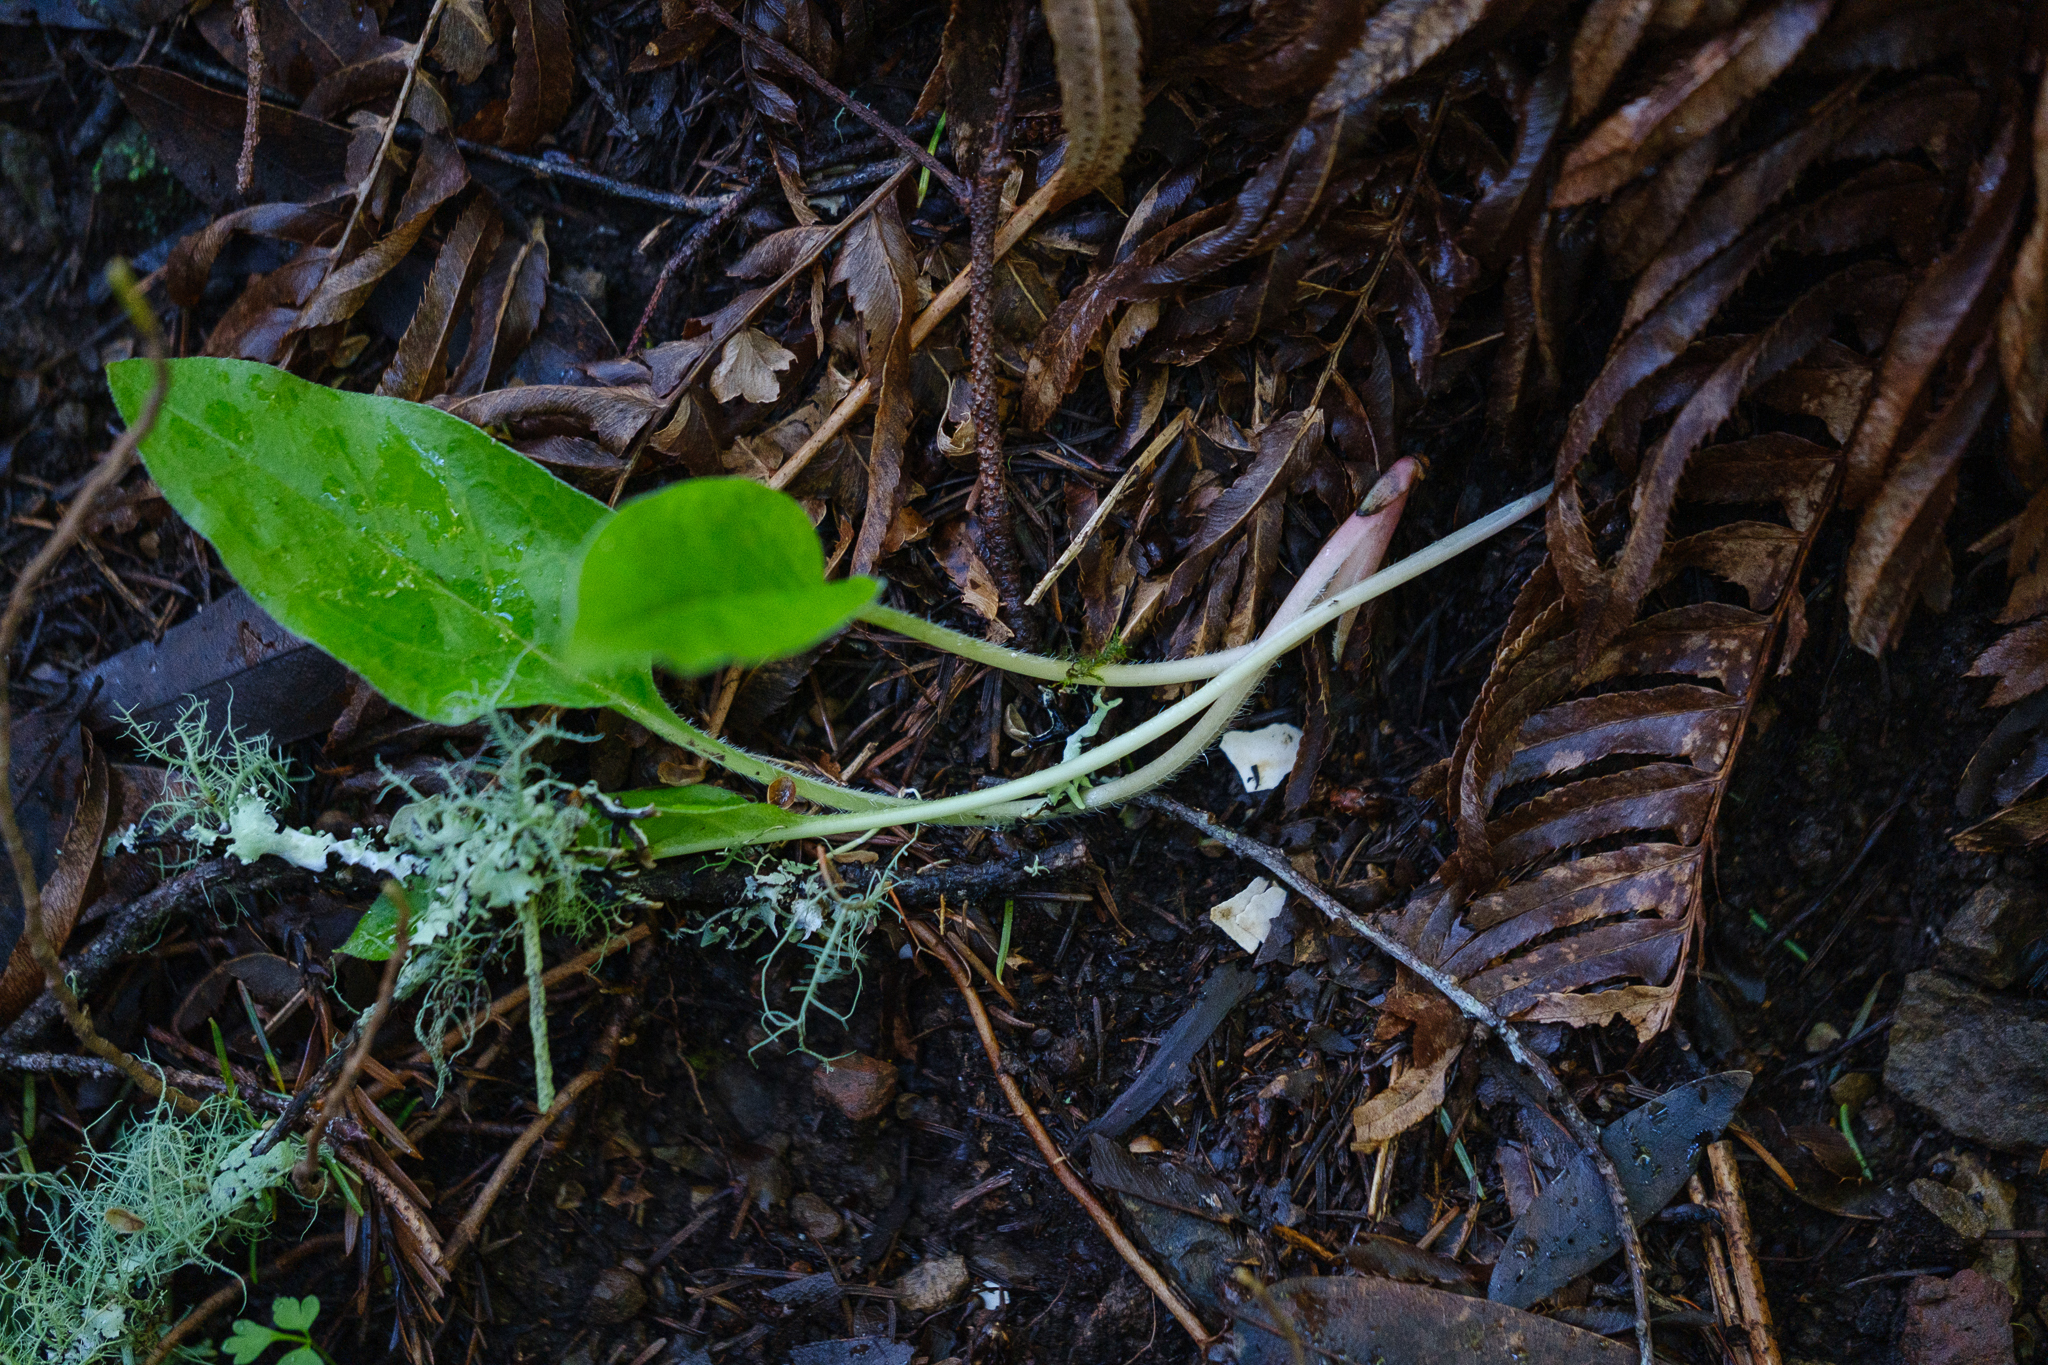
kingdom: Plantae
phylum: Tracheophyta
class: Magnoliopsida
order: Boraginales
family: Boraginaceae
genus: Adelinia
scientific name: Adelinia grande
